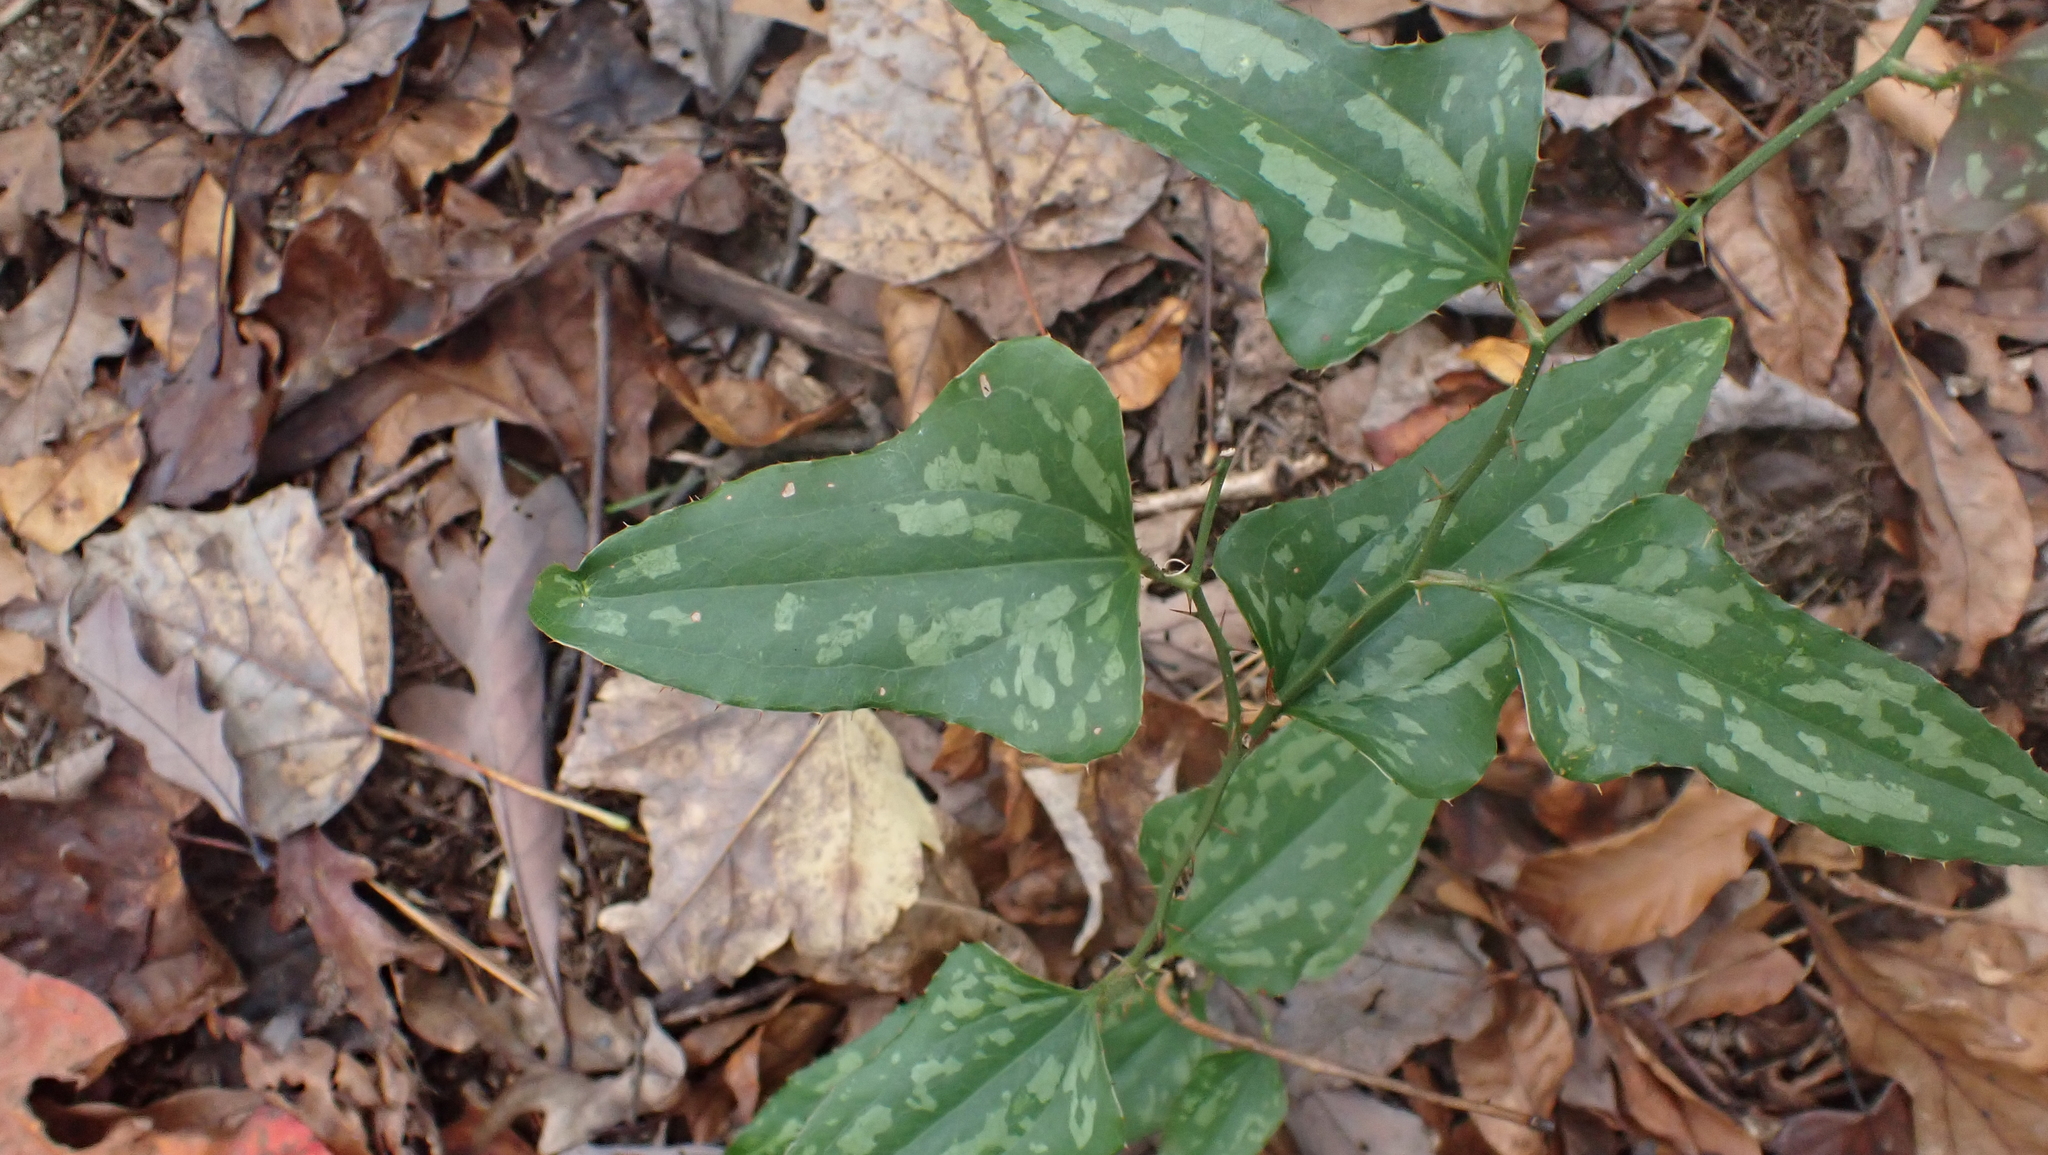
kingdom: Plantae
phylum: Tracheophyta
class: Liliopsida
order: Liliales
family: Smilacaceae
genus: Smilax
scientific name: Smilax bona-nox
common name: Catbrier
